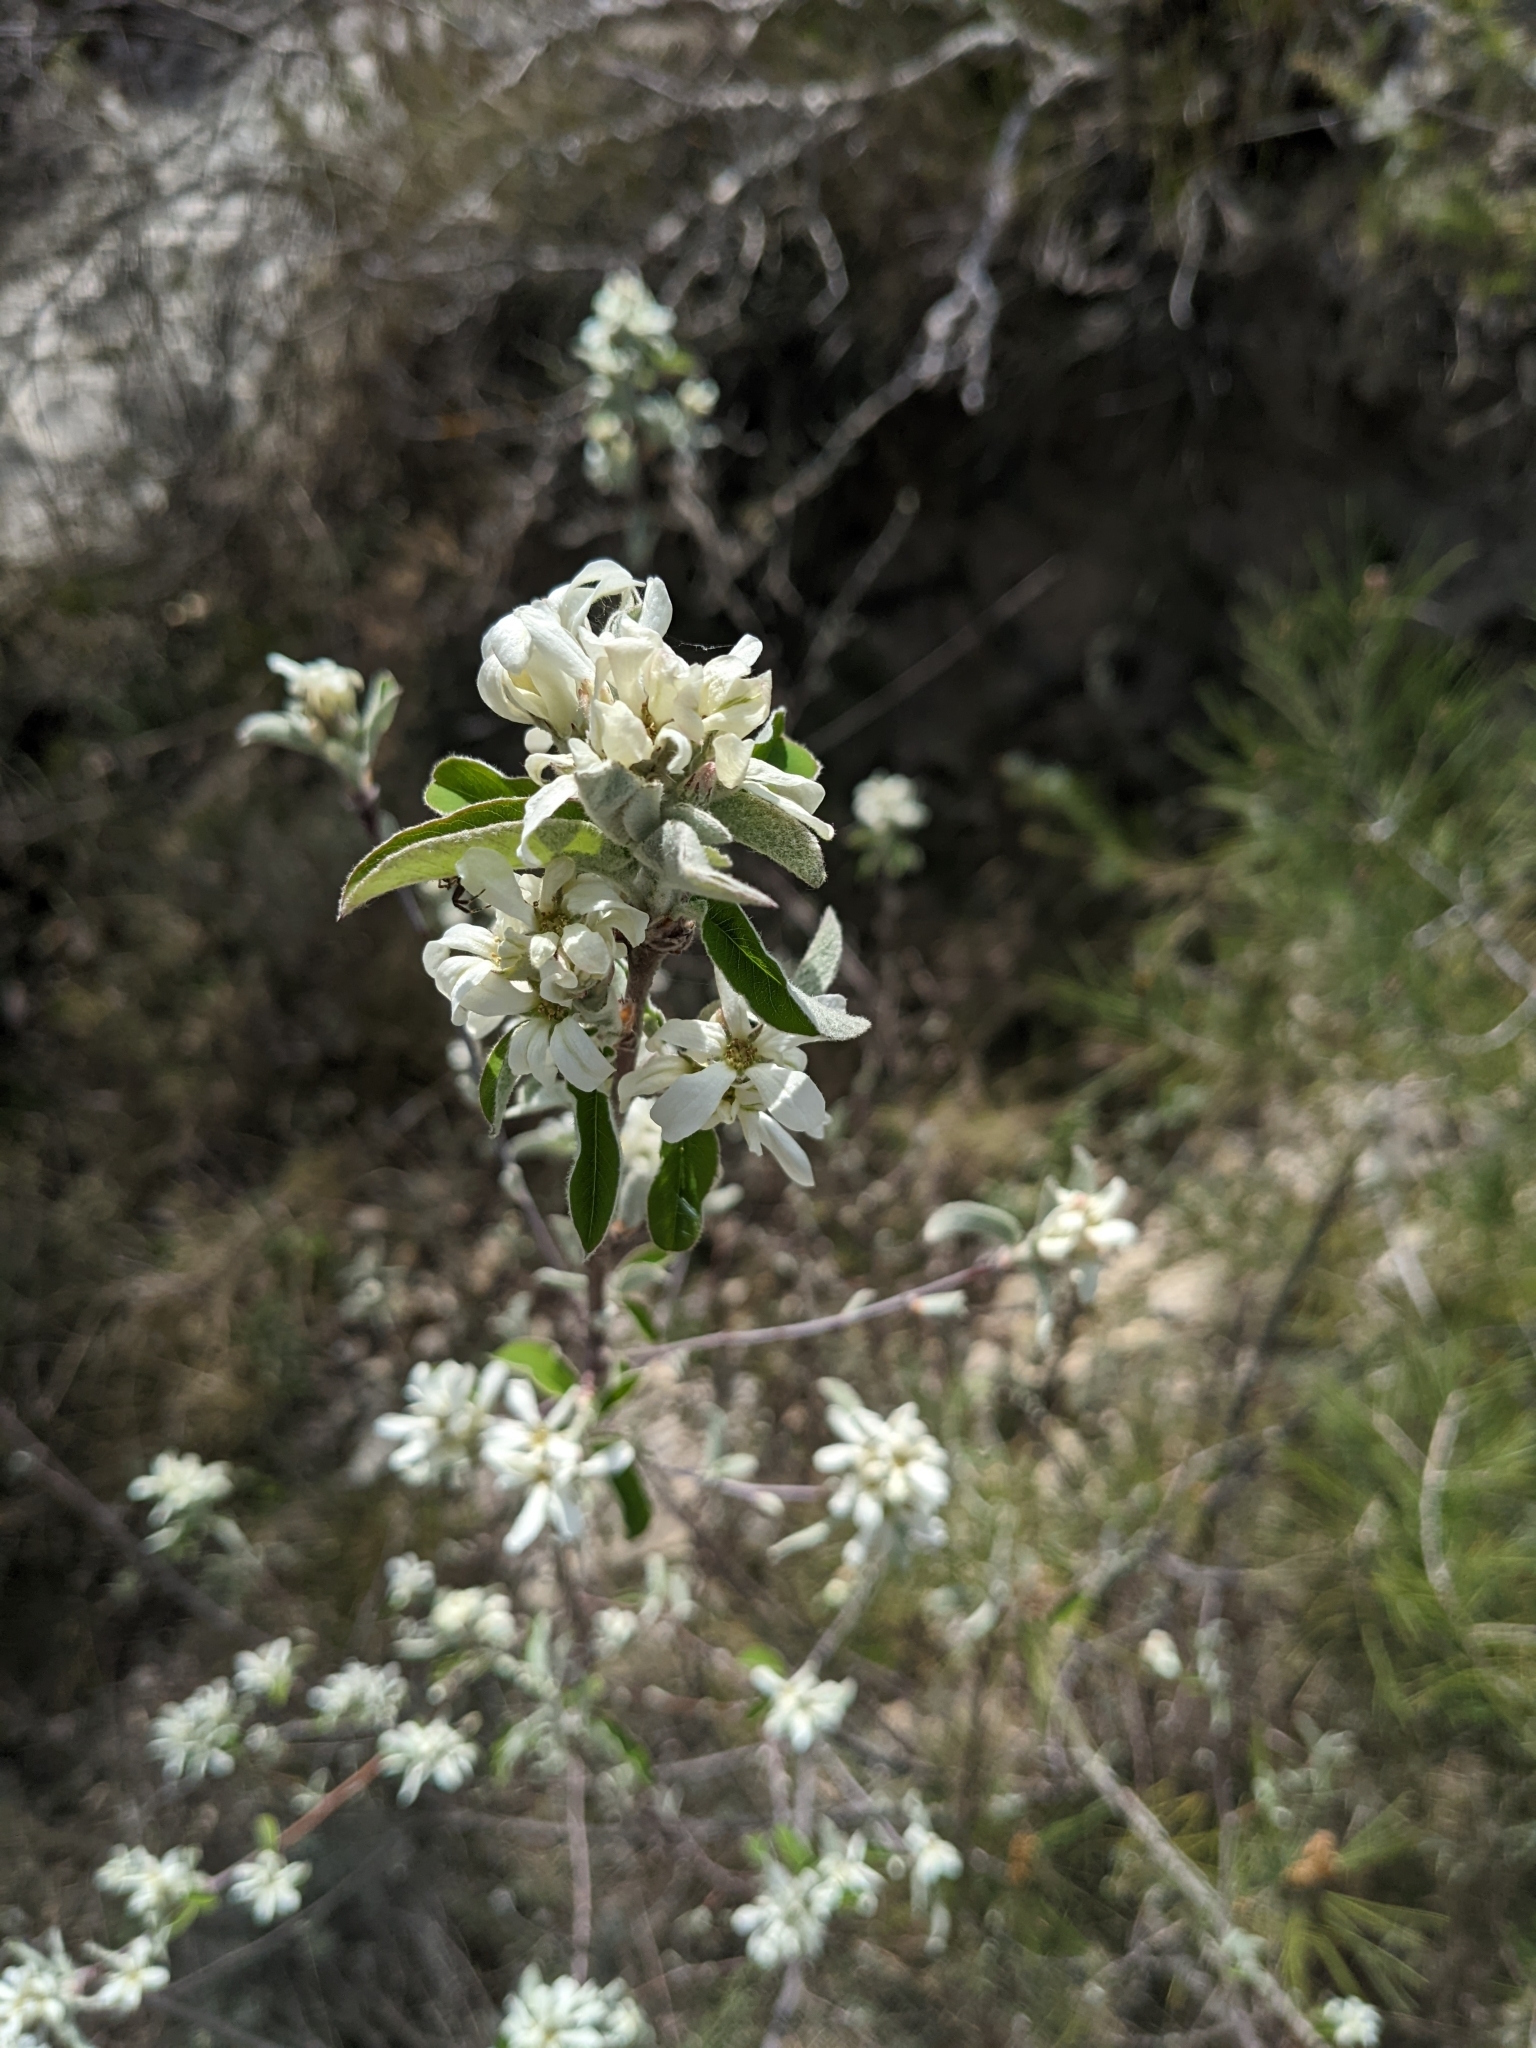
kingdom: Plantae
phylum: Tracheophyta
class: Magnoliopsida
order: Rosales
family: Rosaceae
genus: Amelanchier
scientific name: Amelanchier ovalis
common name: Serviceberry
